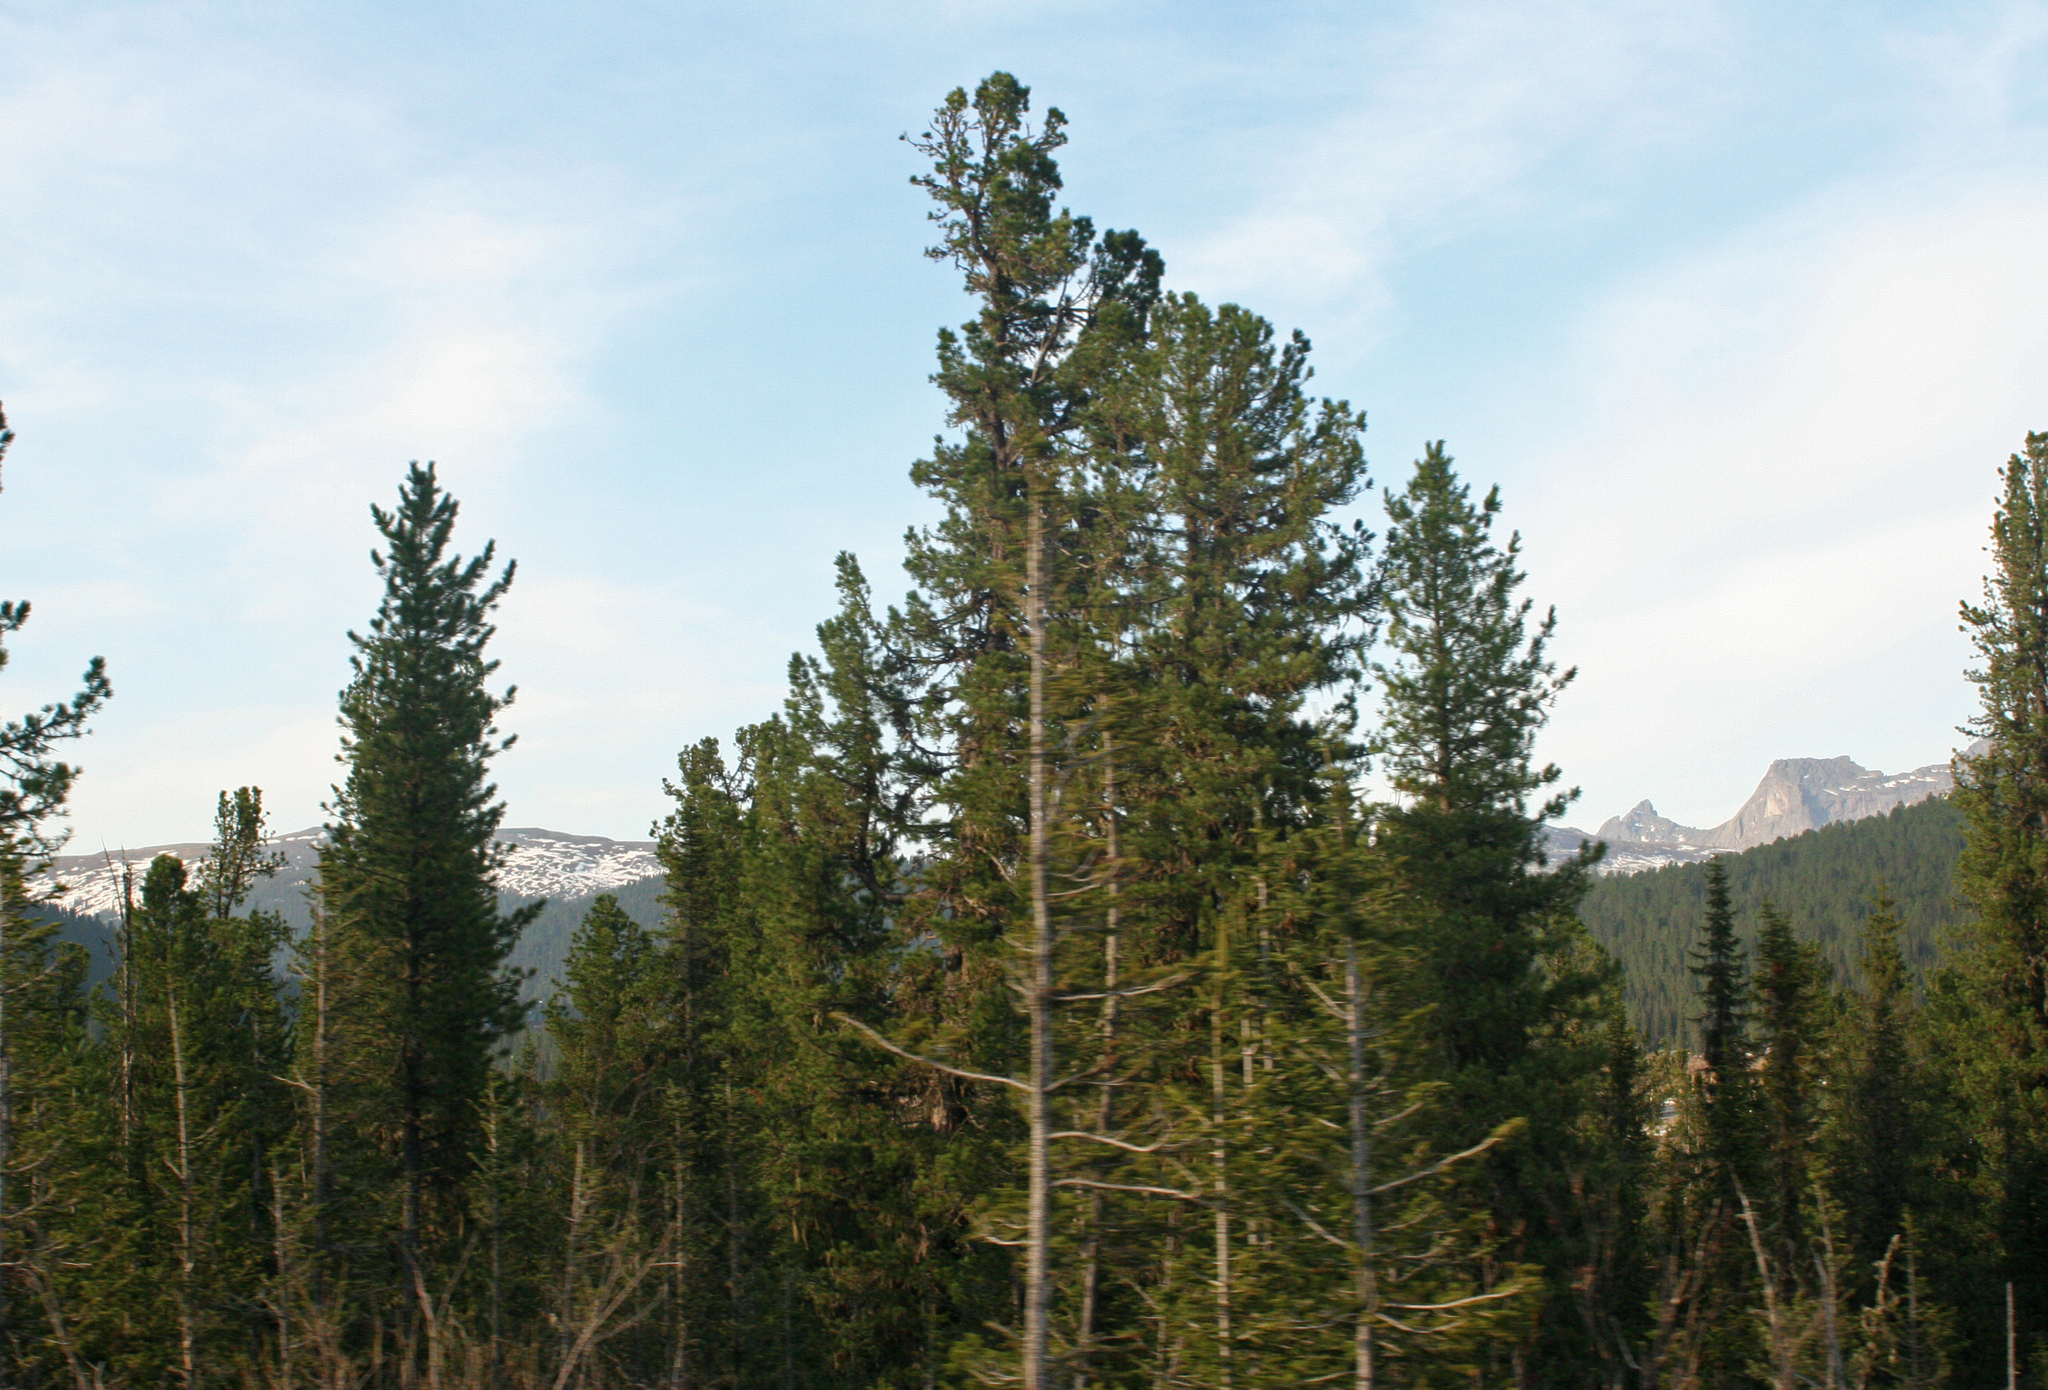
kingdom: Plantae
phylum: Tracheophyta
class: Pinopsida
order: Pinales
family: Pinaceae
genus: Pinus
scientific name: Pinus sibirica
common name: Siberian pine
